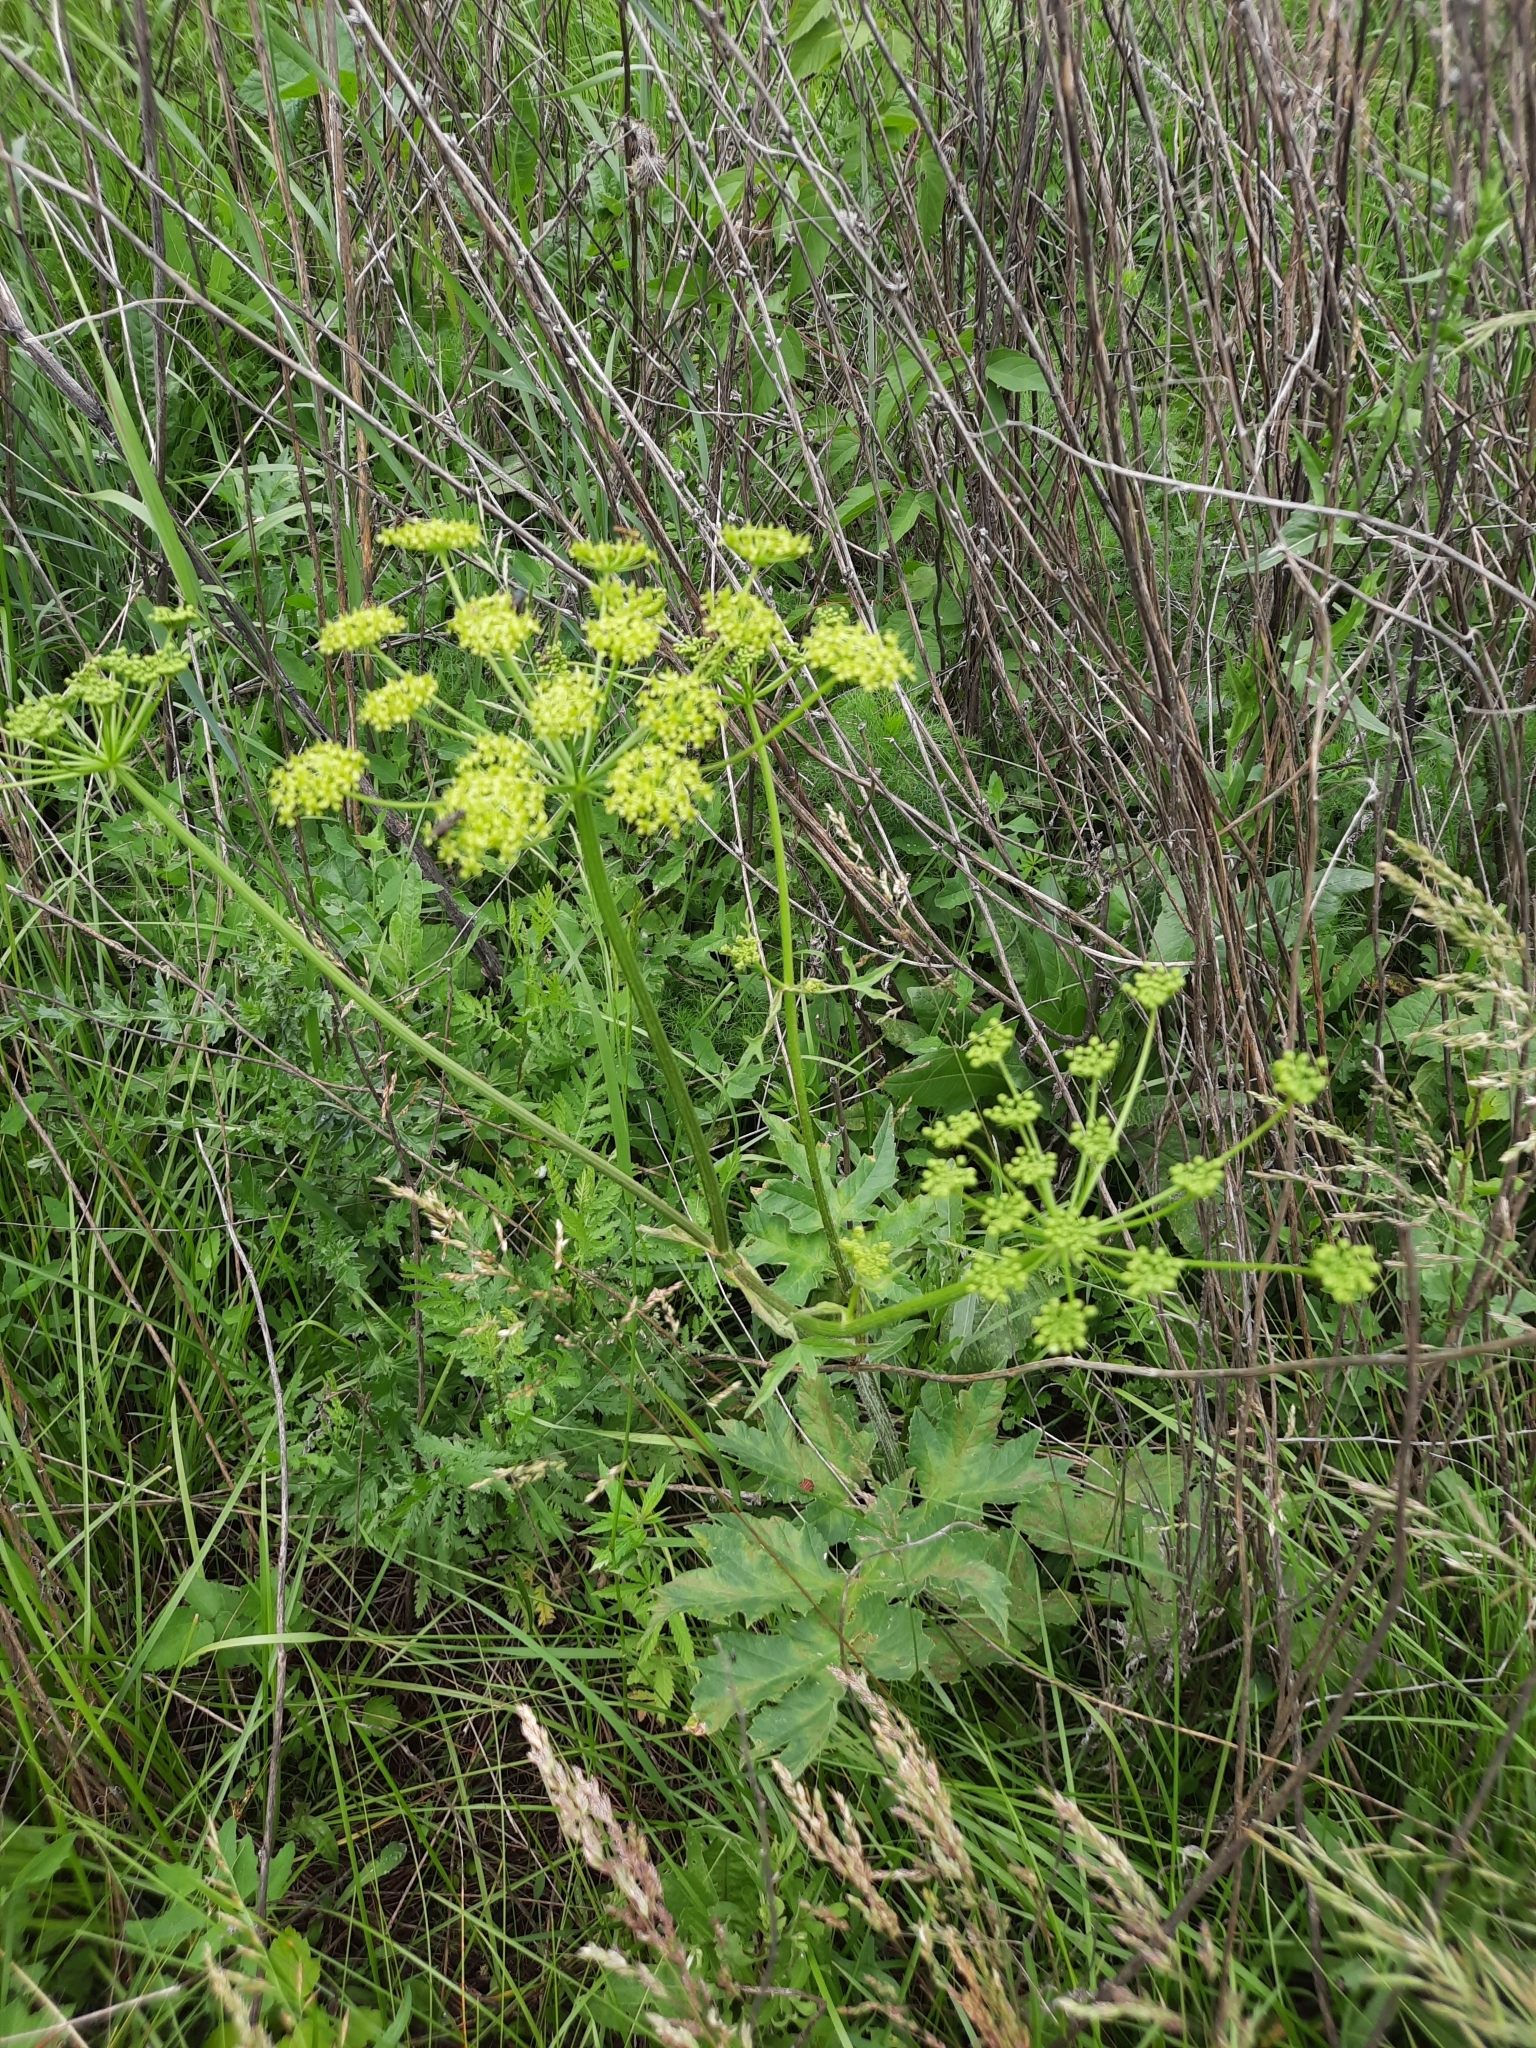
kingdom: Plantae
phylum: Tracheophyta
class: Magnoliopsida
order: Apiales
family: Apiaceae
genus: Heracleum
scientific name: Heracleum sphondylium
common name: Hogweed
